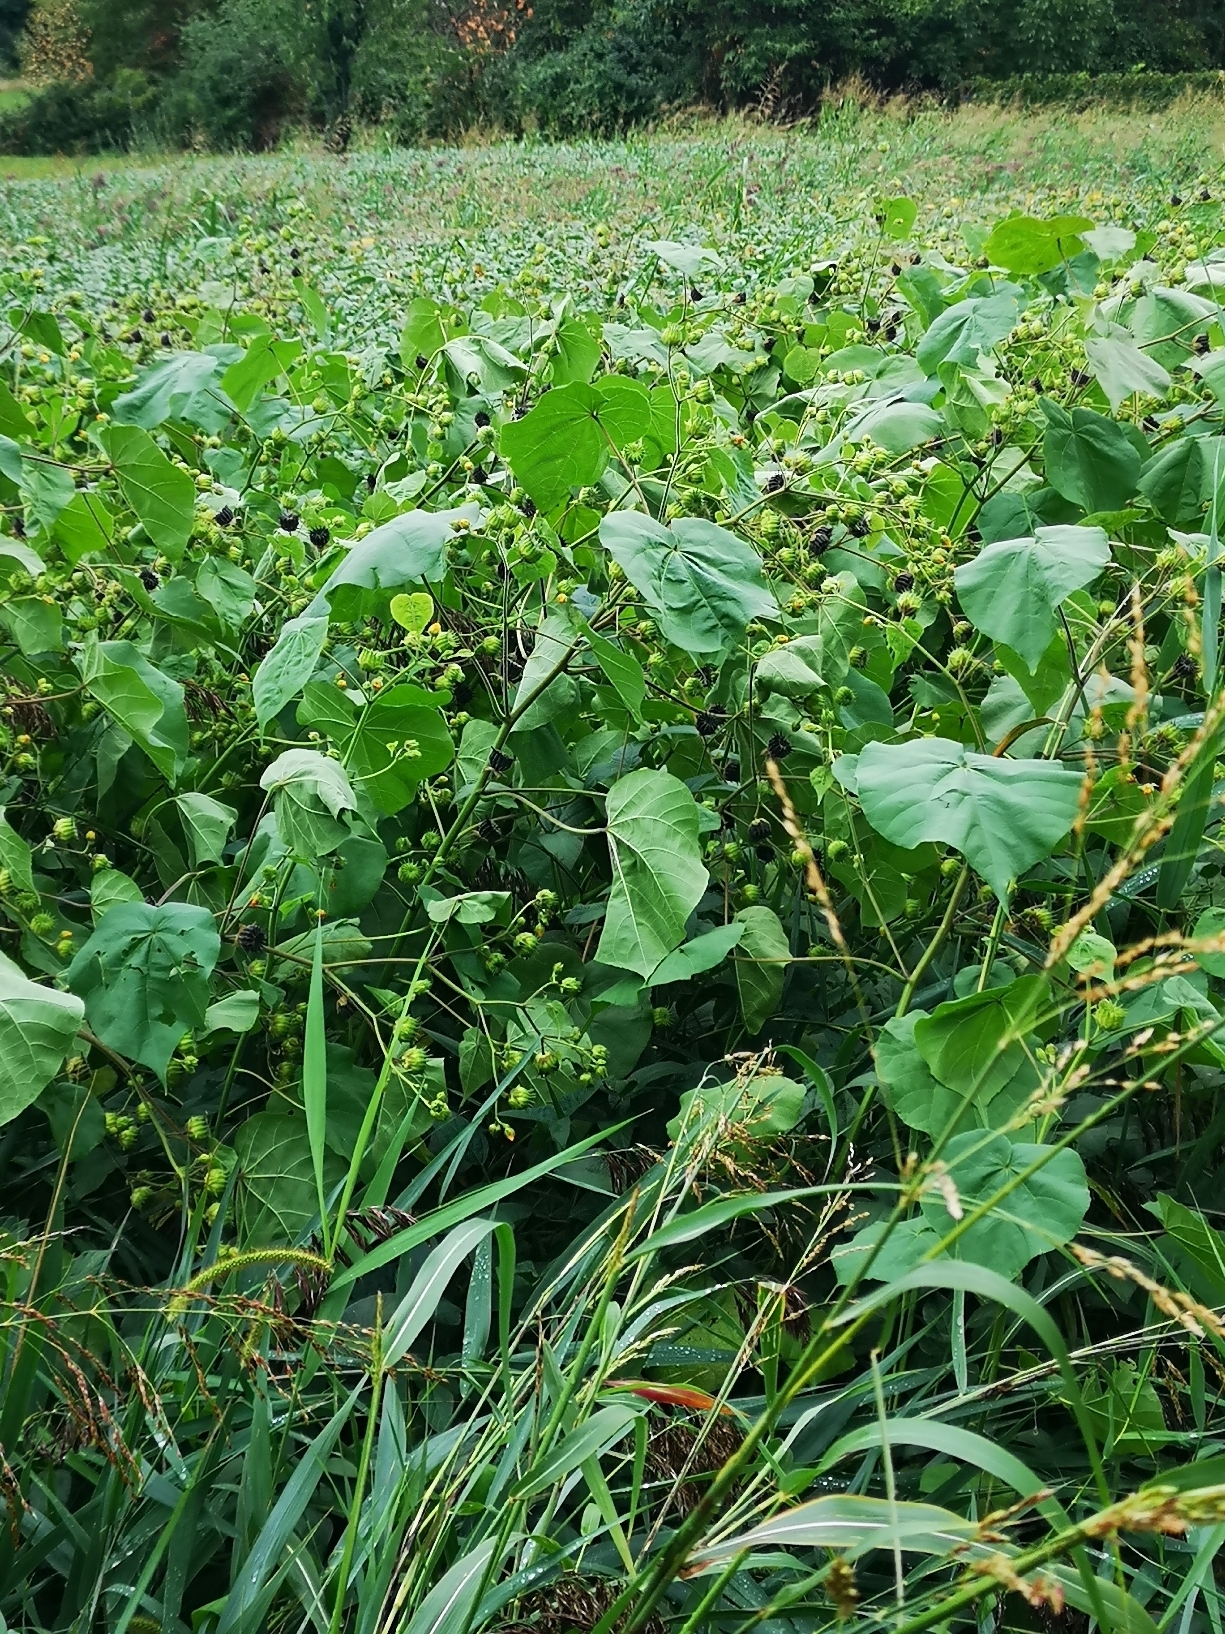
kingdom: Plantae
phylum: Tracheophyta
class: Magnoliopsida
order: Malvales
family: Malvaceae
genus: Abutilon
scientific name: Abutilon theophrasti
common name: Velvetleaf
